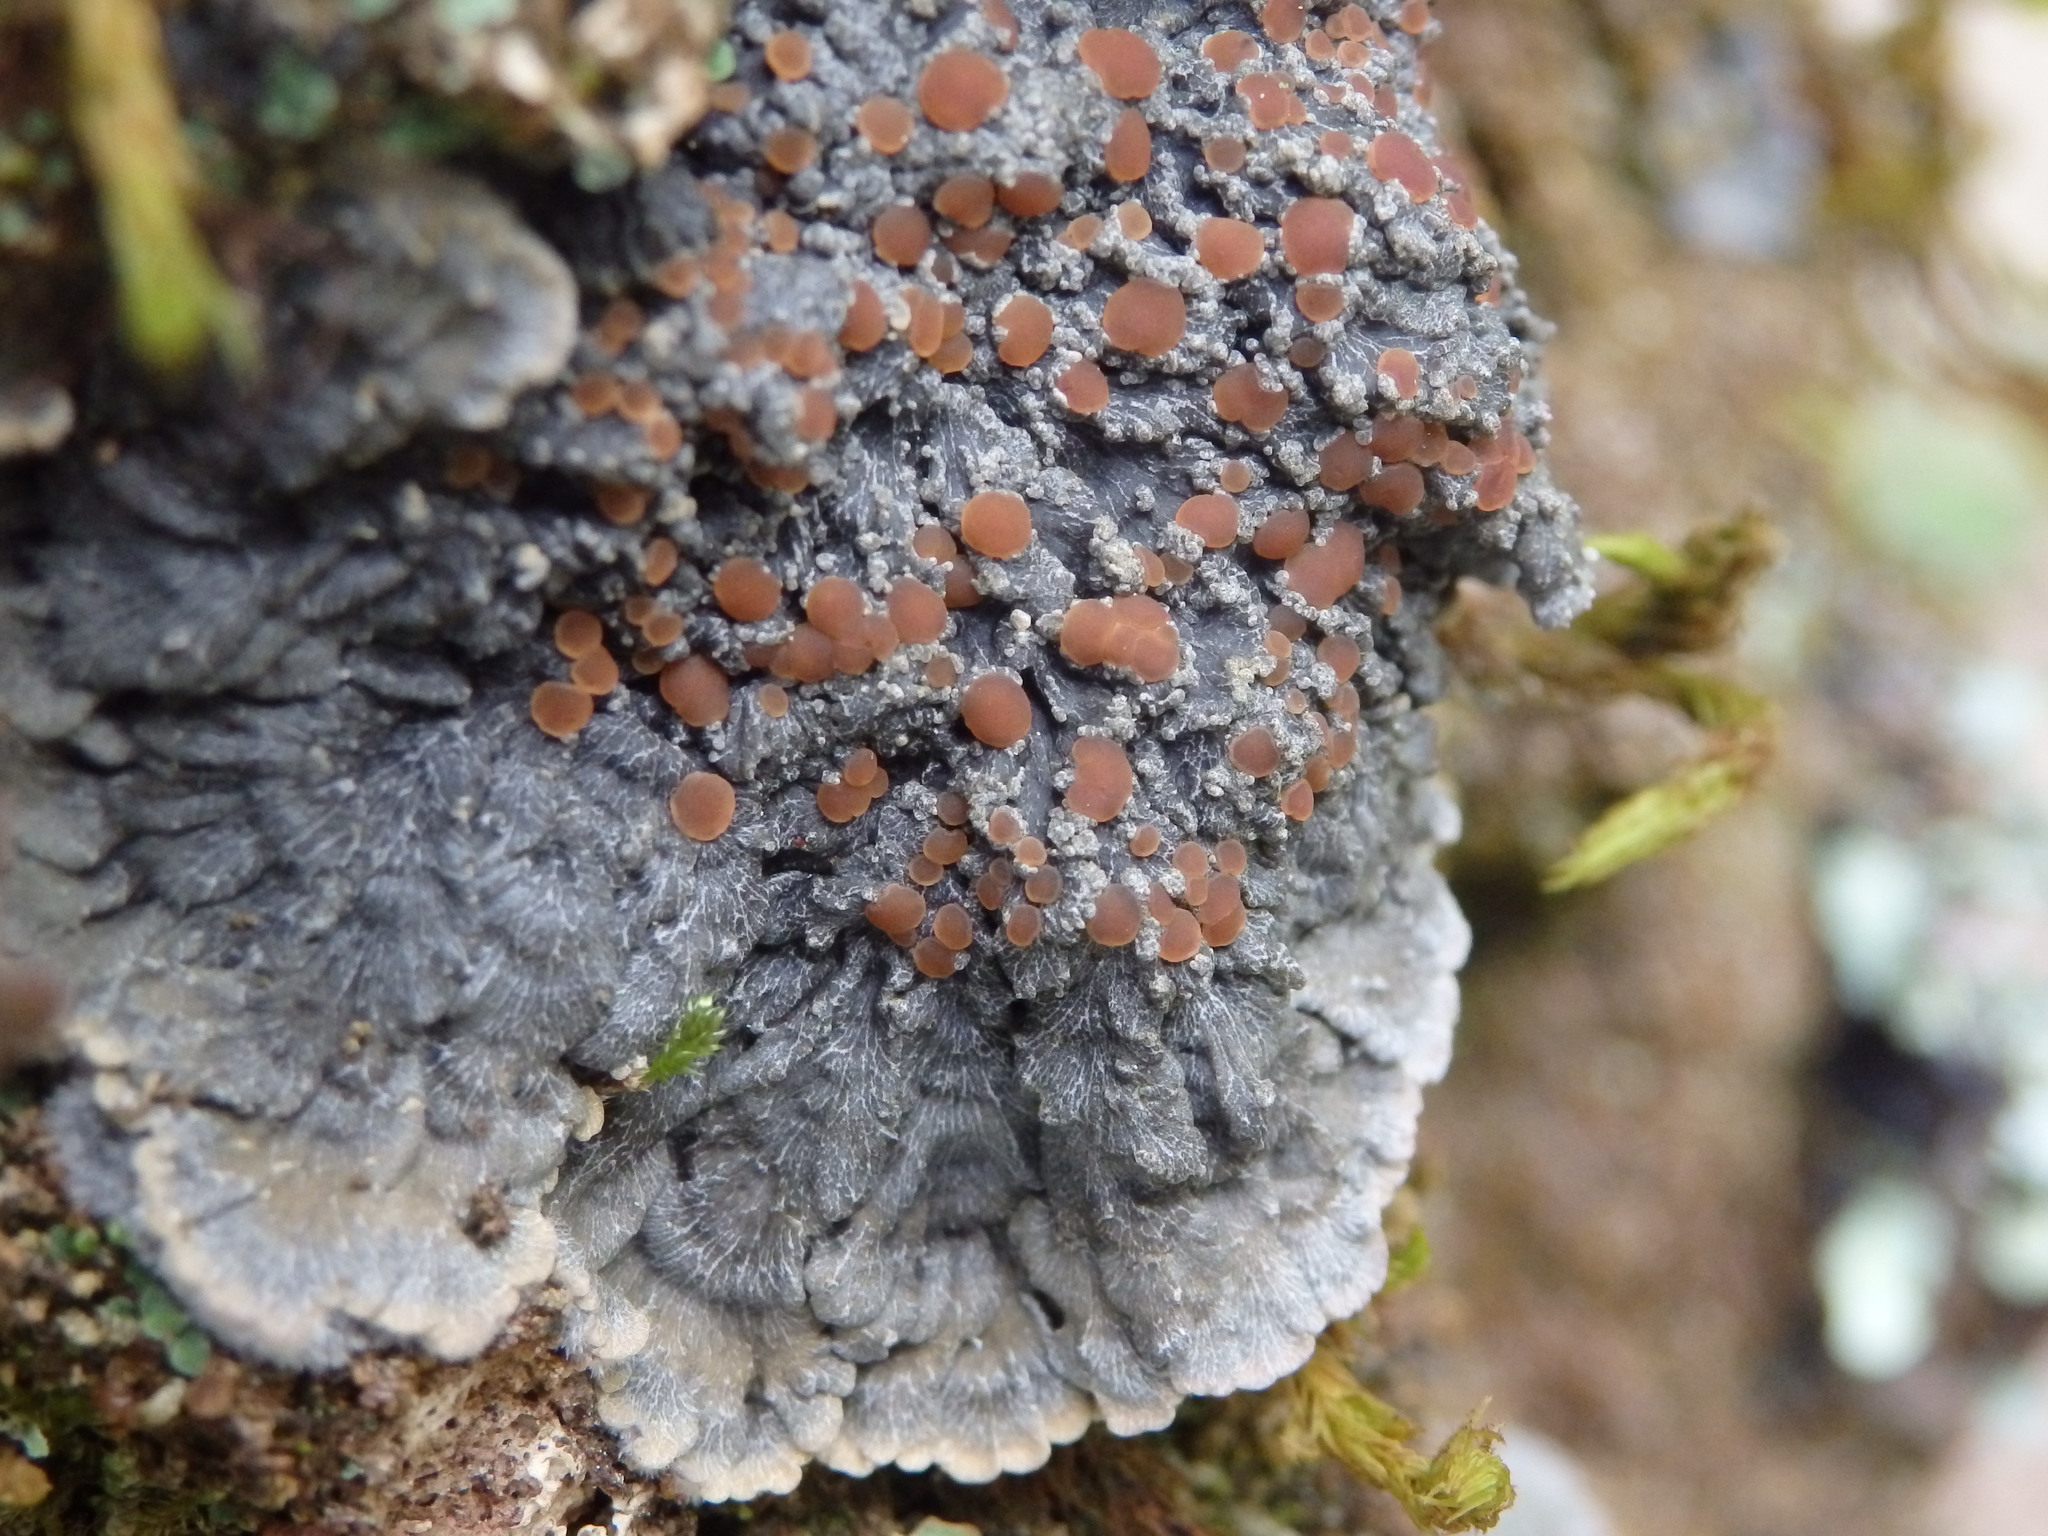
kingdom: Fungi
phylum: Ascomycota
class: Lecanoromycetes
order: Peltigerales
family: Pannariaceae
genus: Pectenia
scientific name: Pectenia plumbea
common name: Bladder stalks
